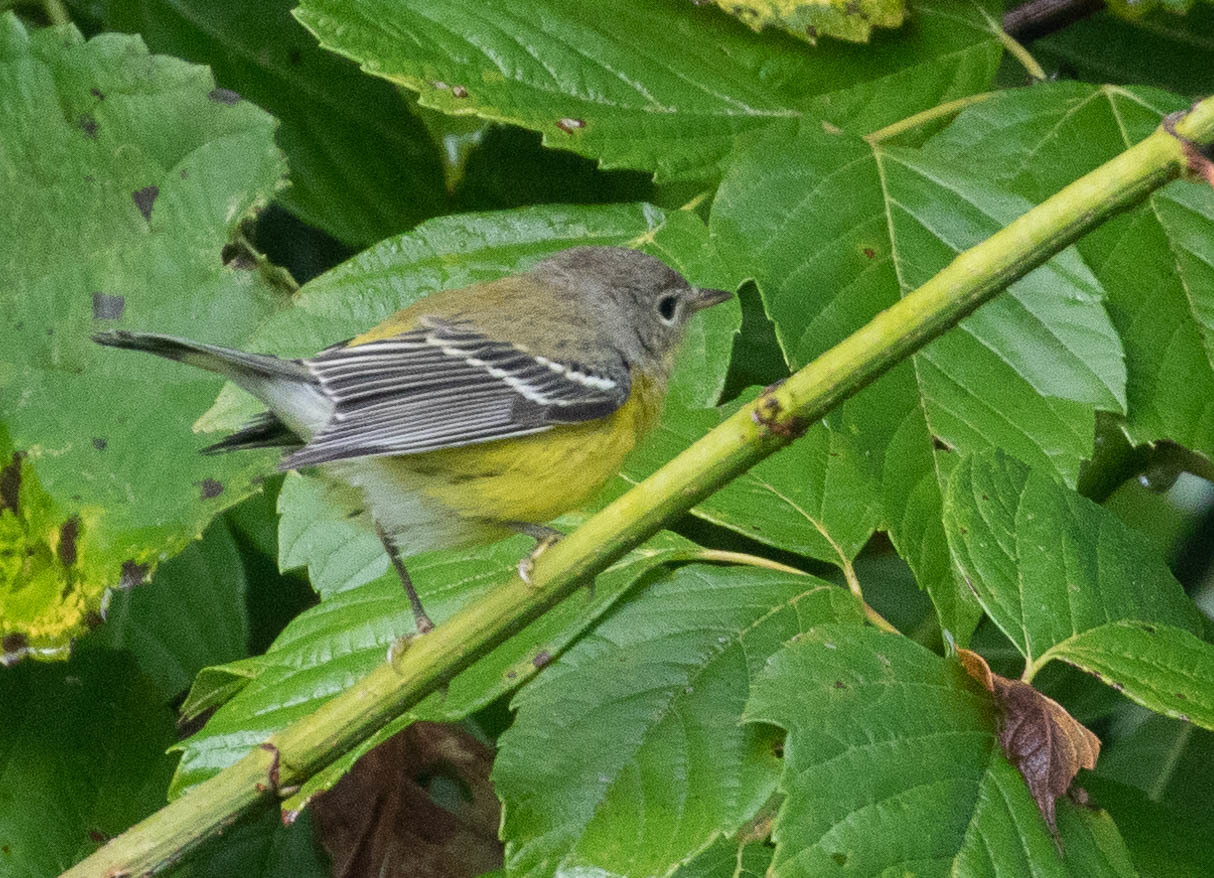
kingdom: Animalia
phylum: Chordata
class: Aves
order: Passeriformes
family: Parulidae
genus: Setophaga
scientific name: Setophaga magnolia
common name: Magnolia warbler
